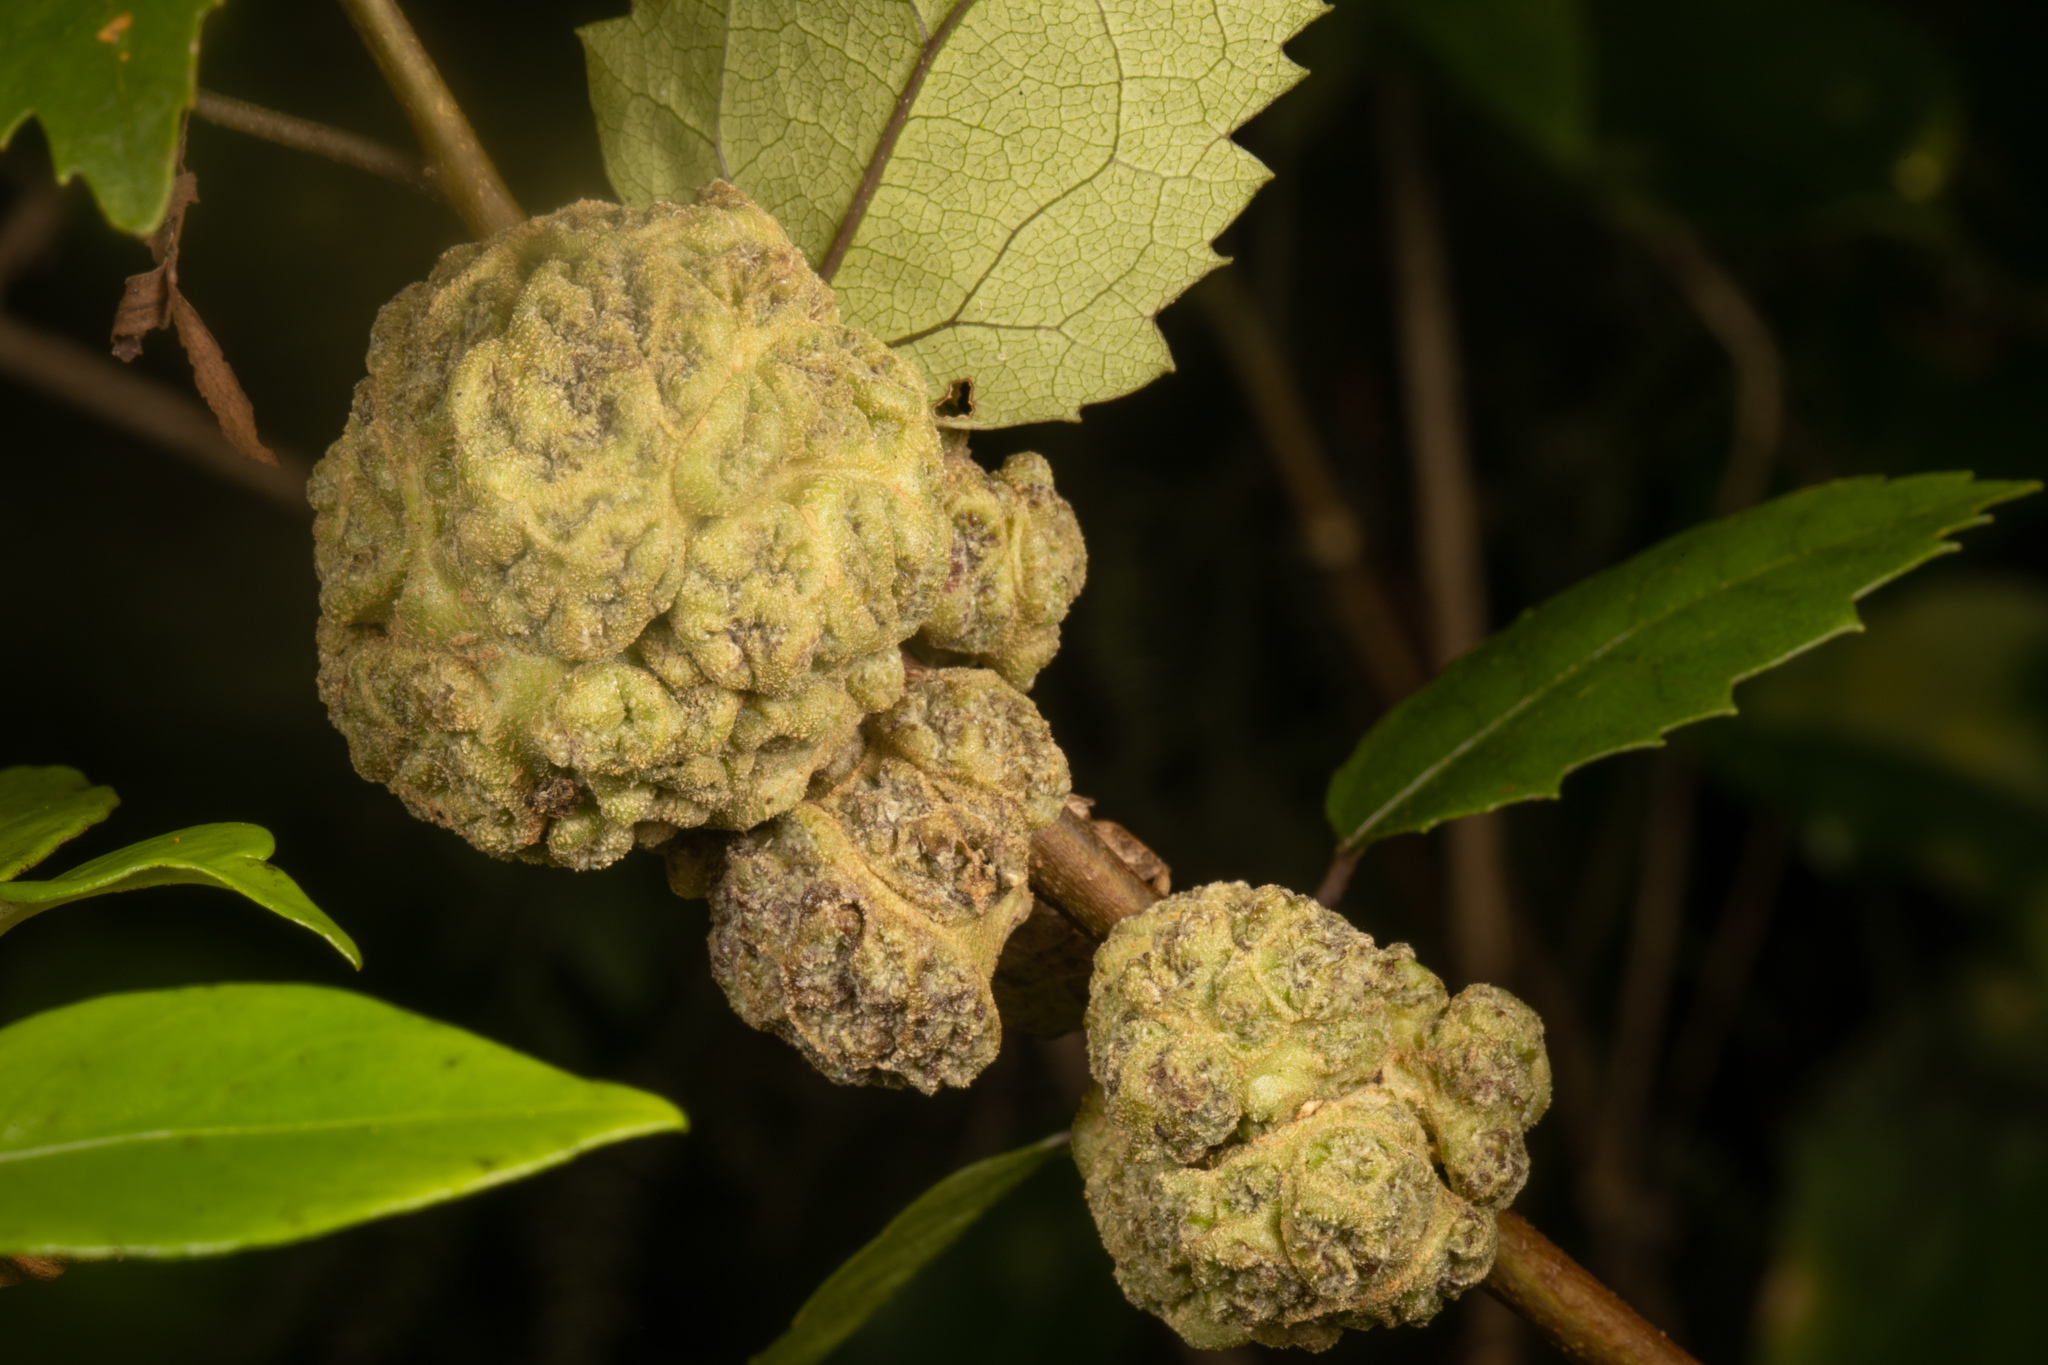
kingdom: Animalia
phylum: Arthropoda
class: Arachnida
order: Trombidiformes
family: Eriophyidae
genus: Eriophyes
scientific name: Eriophyes hoheriae
